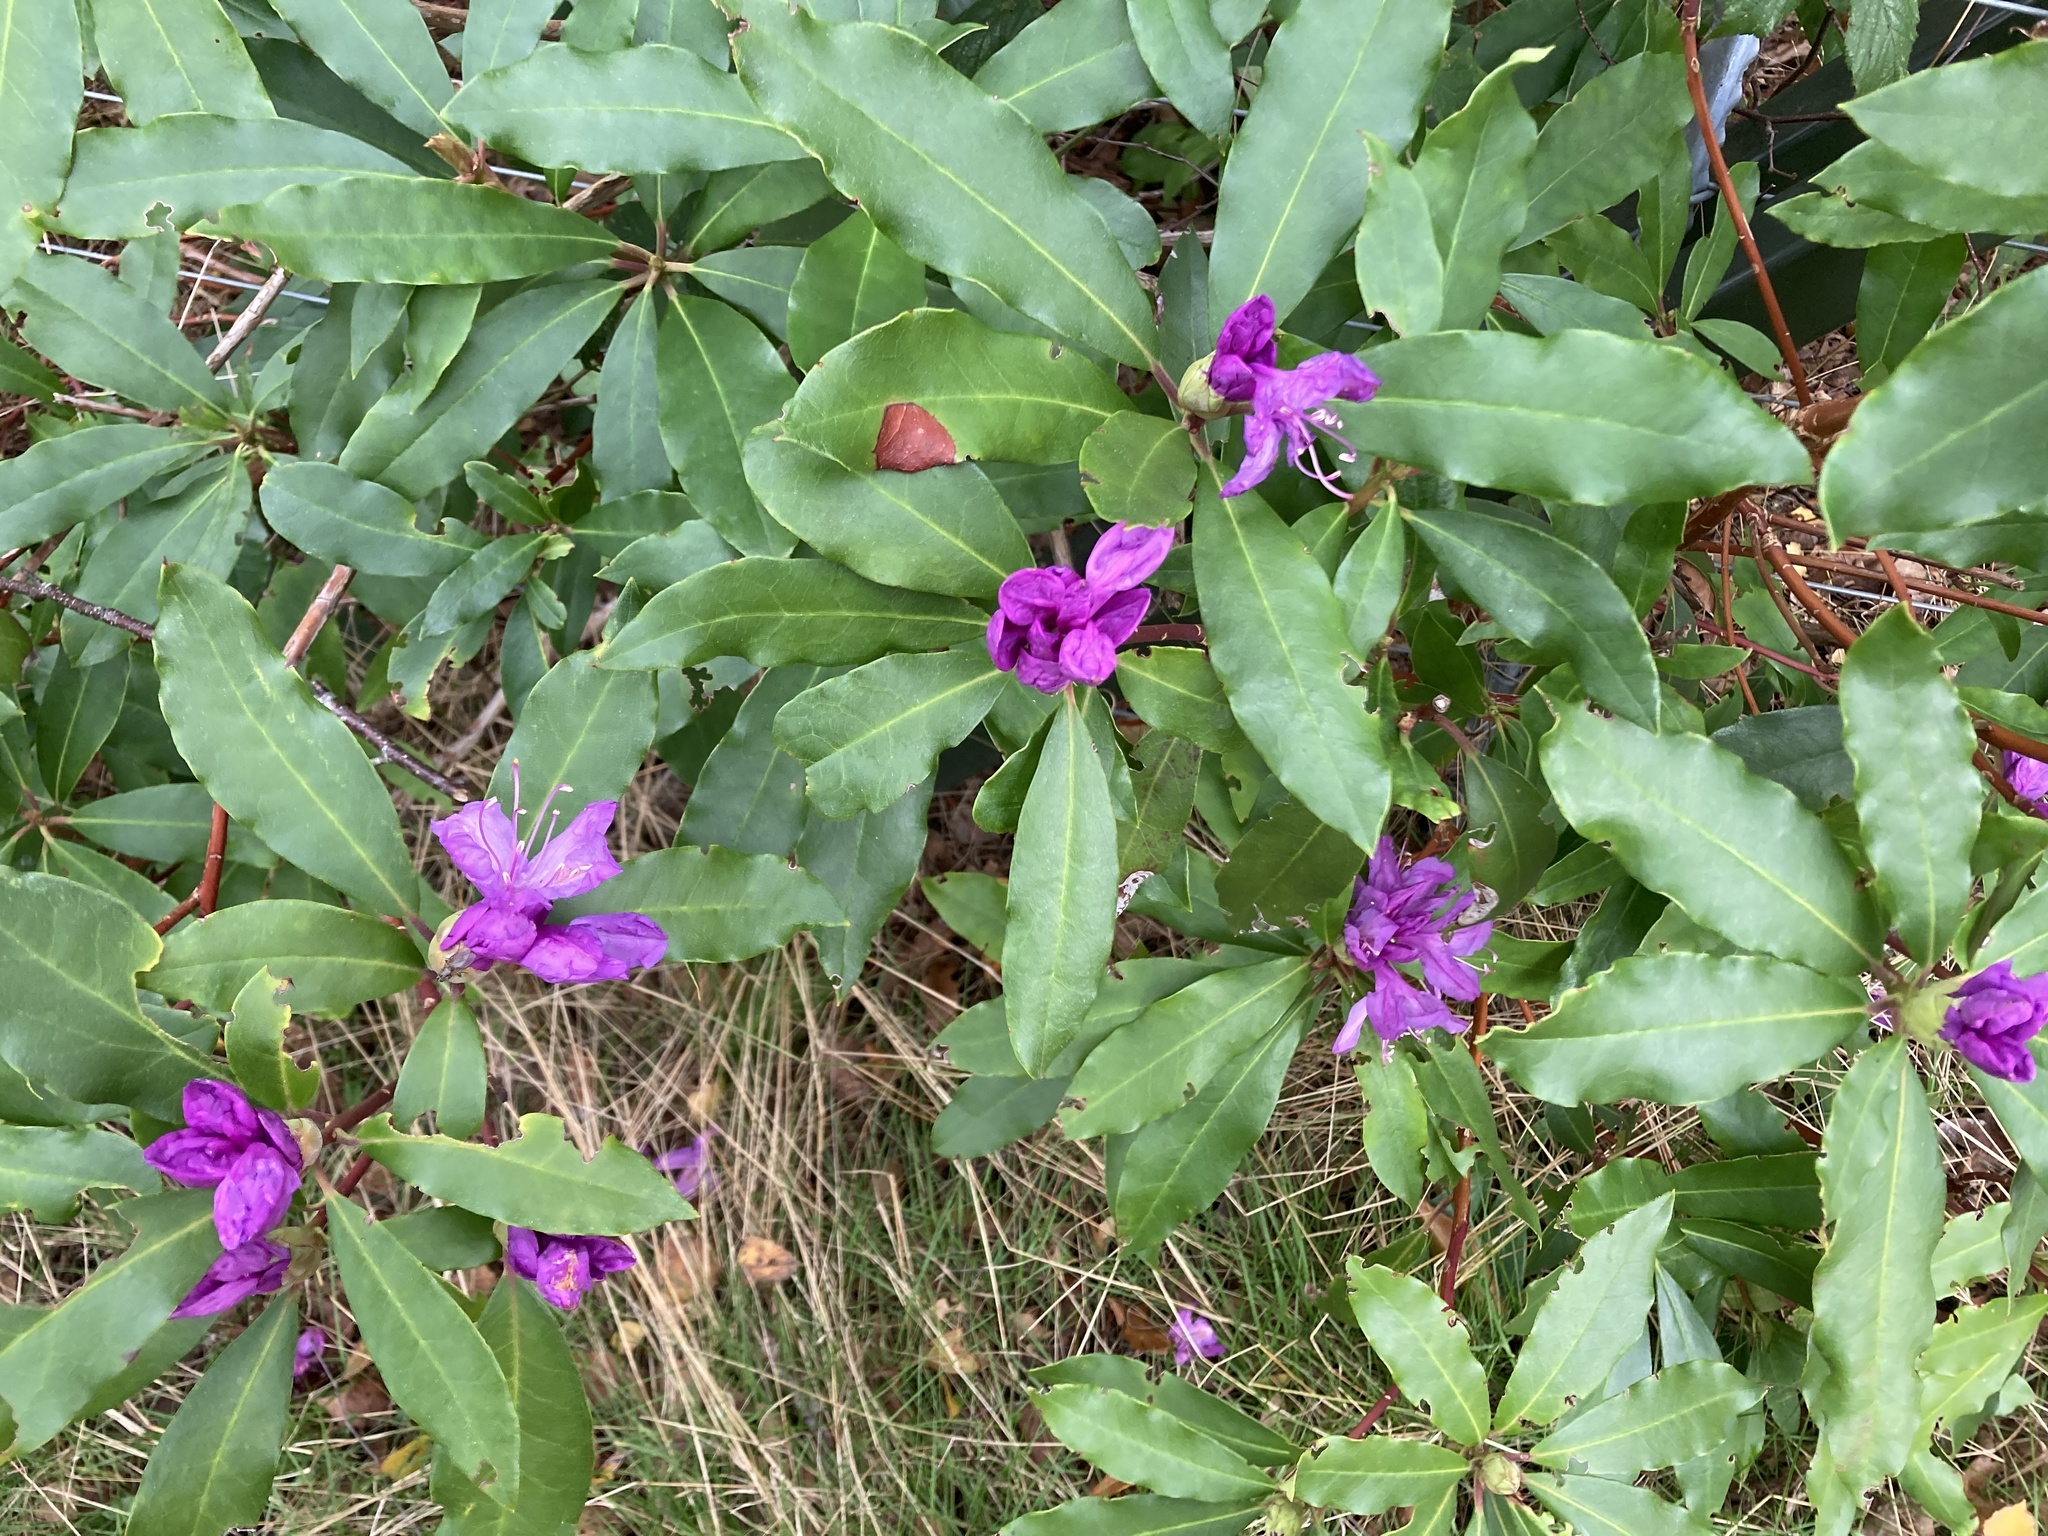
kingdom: Plantae
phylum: Tracheophyta
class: Magnoliopsida
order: Ericales
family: Ericaceae
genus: Rhododendron
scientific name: Rhododendron ponticum
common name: Rhododendron
